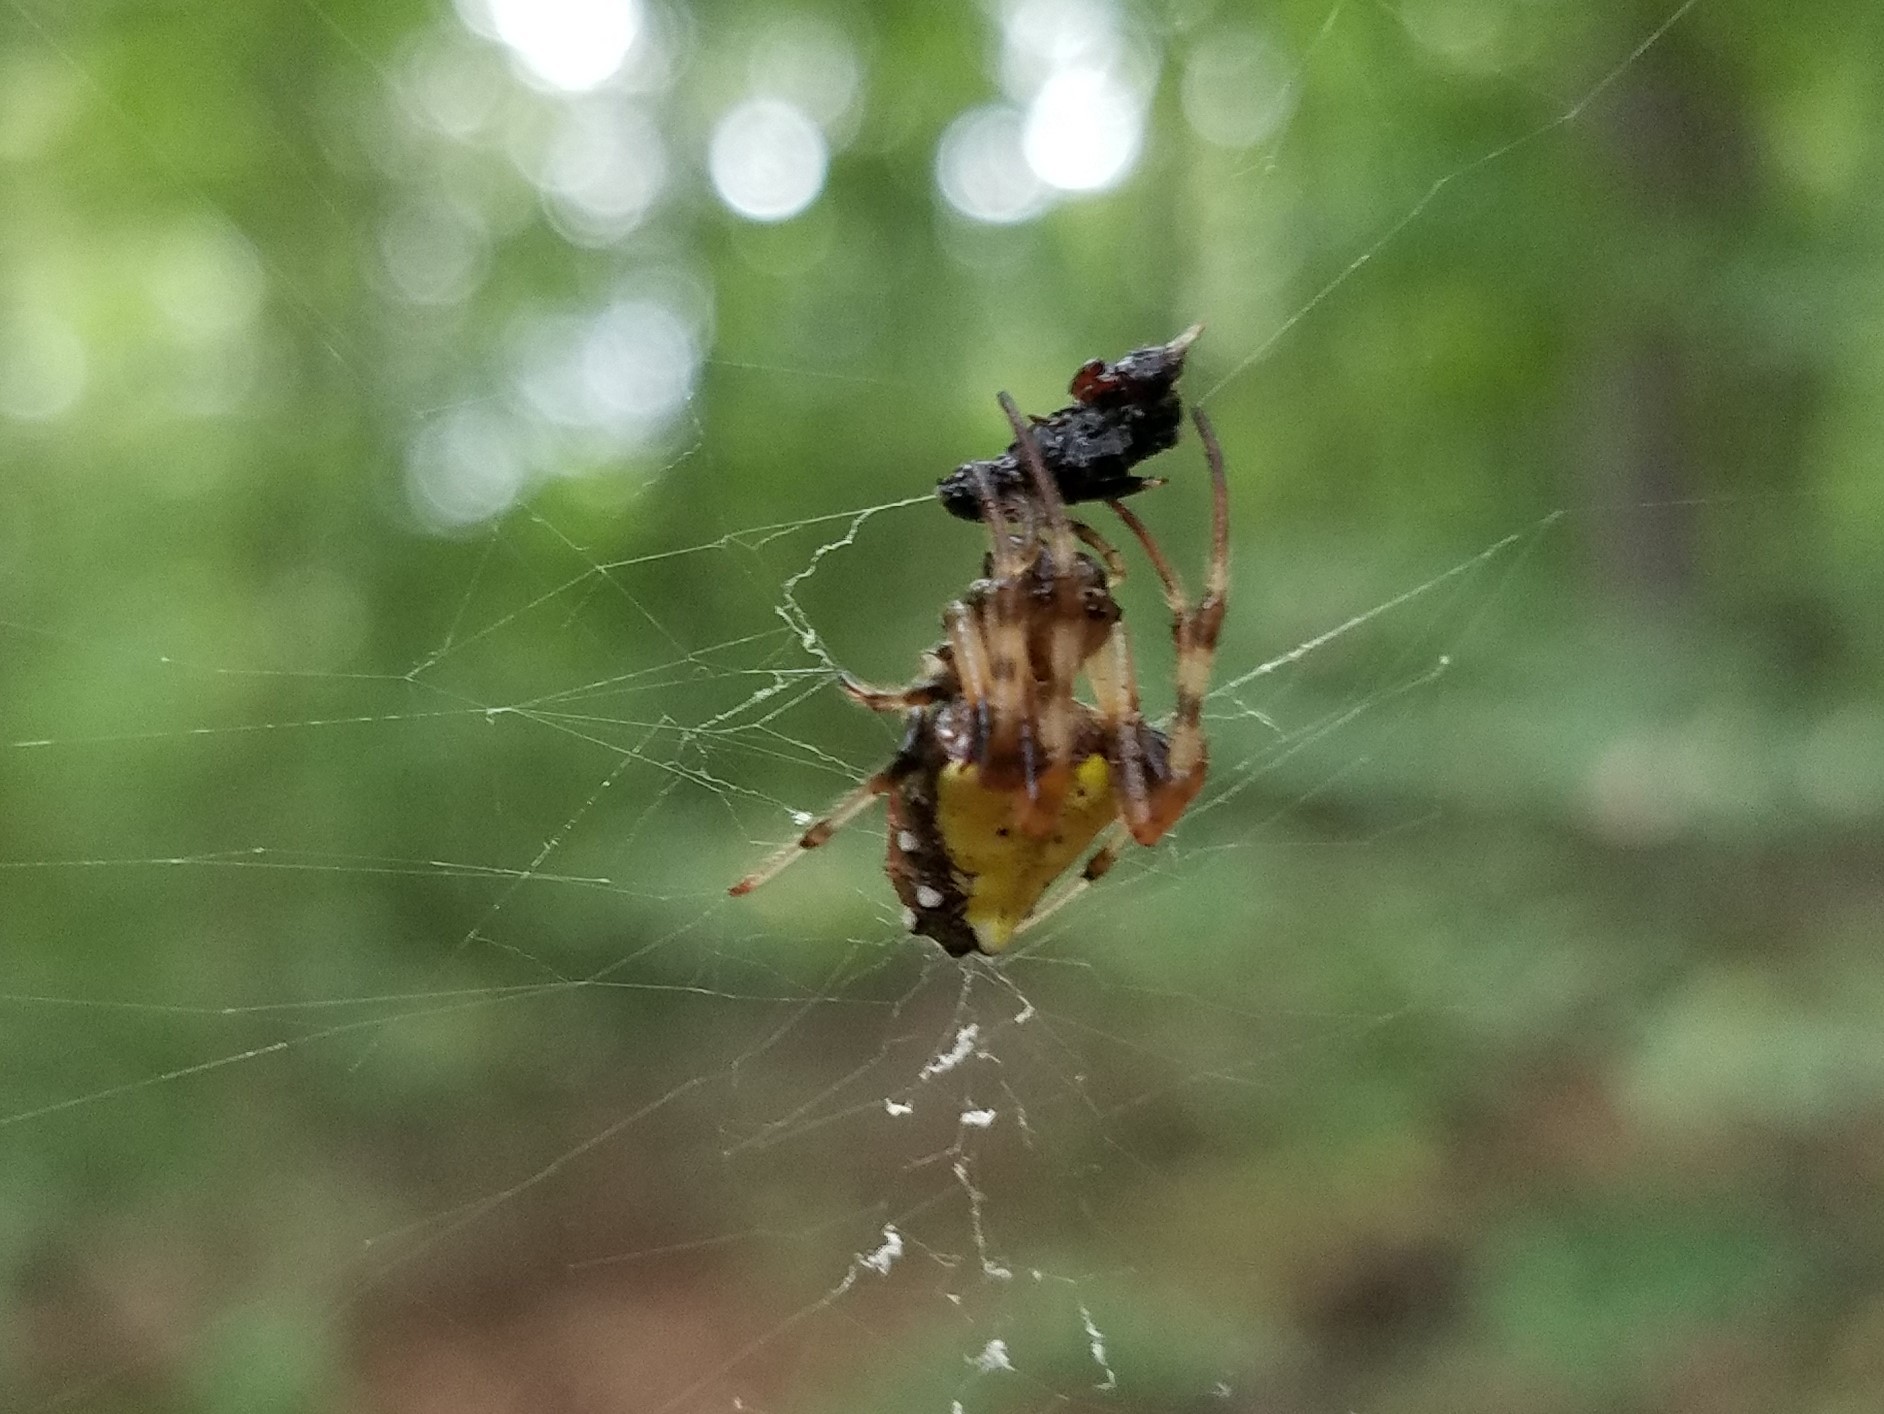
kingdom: Animalia
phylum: Arthropoda
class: Arachnida
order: Araneae
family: Araneidae
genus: Verrucosa
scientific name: Verrucosa arenata
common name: Orb weavers
